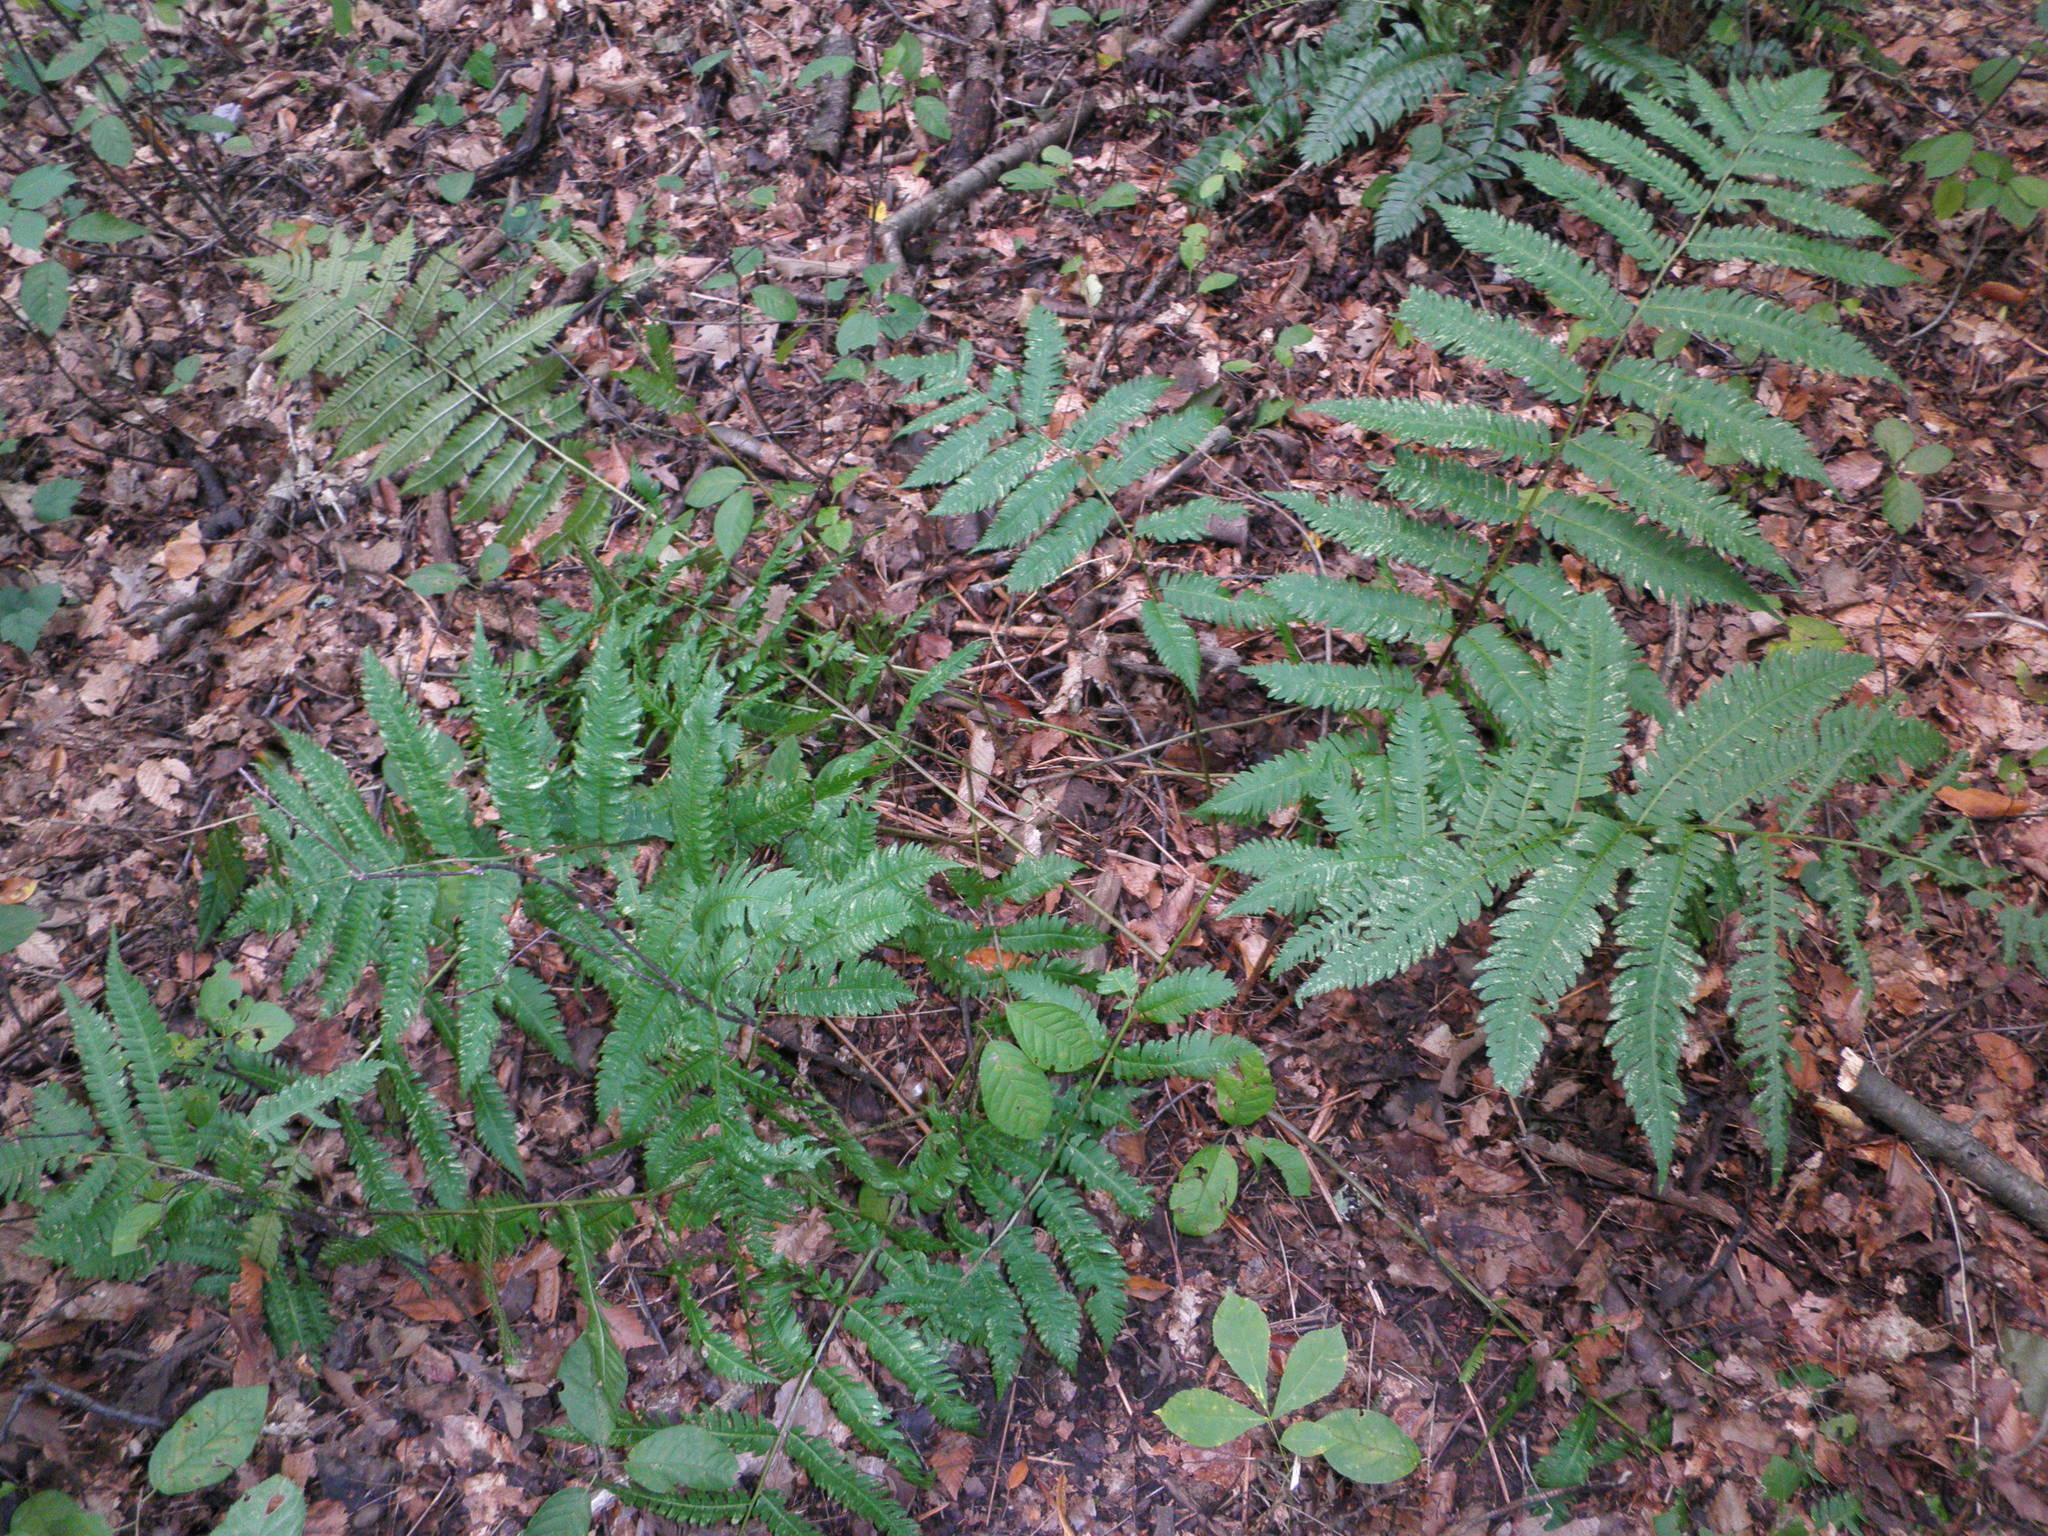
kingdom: Plantae
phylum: Tracheophyta
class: Polypodiopsida
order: Polypodiales
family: Dryopteridaceae
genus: Dryopteris
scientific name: Dryopteris goldieana
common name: Goldie's fern
